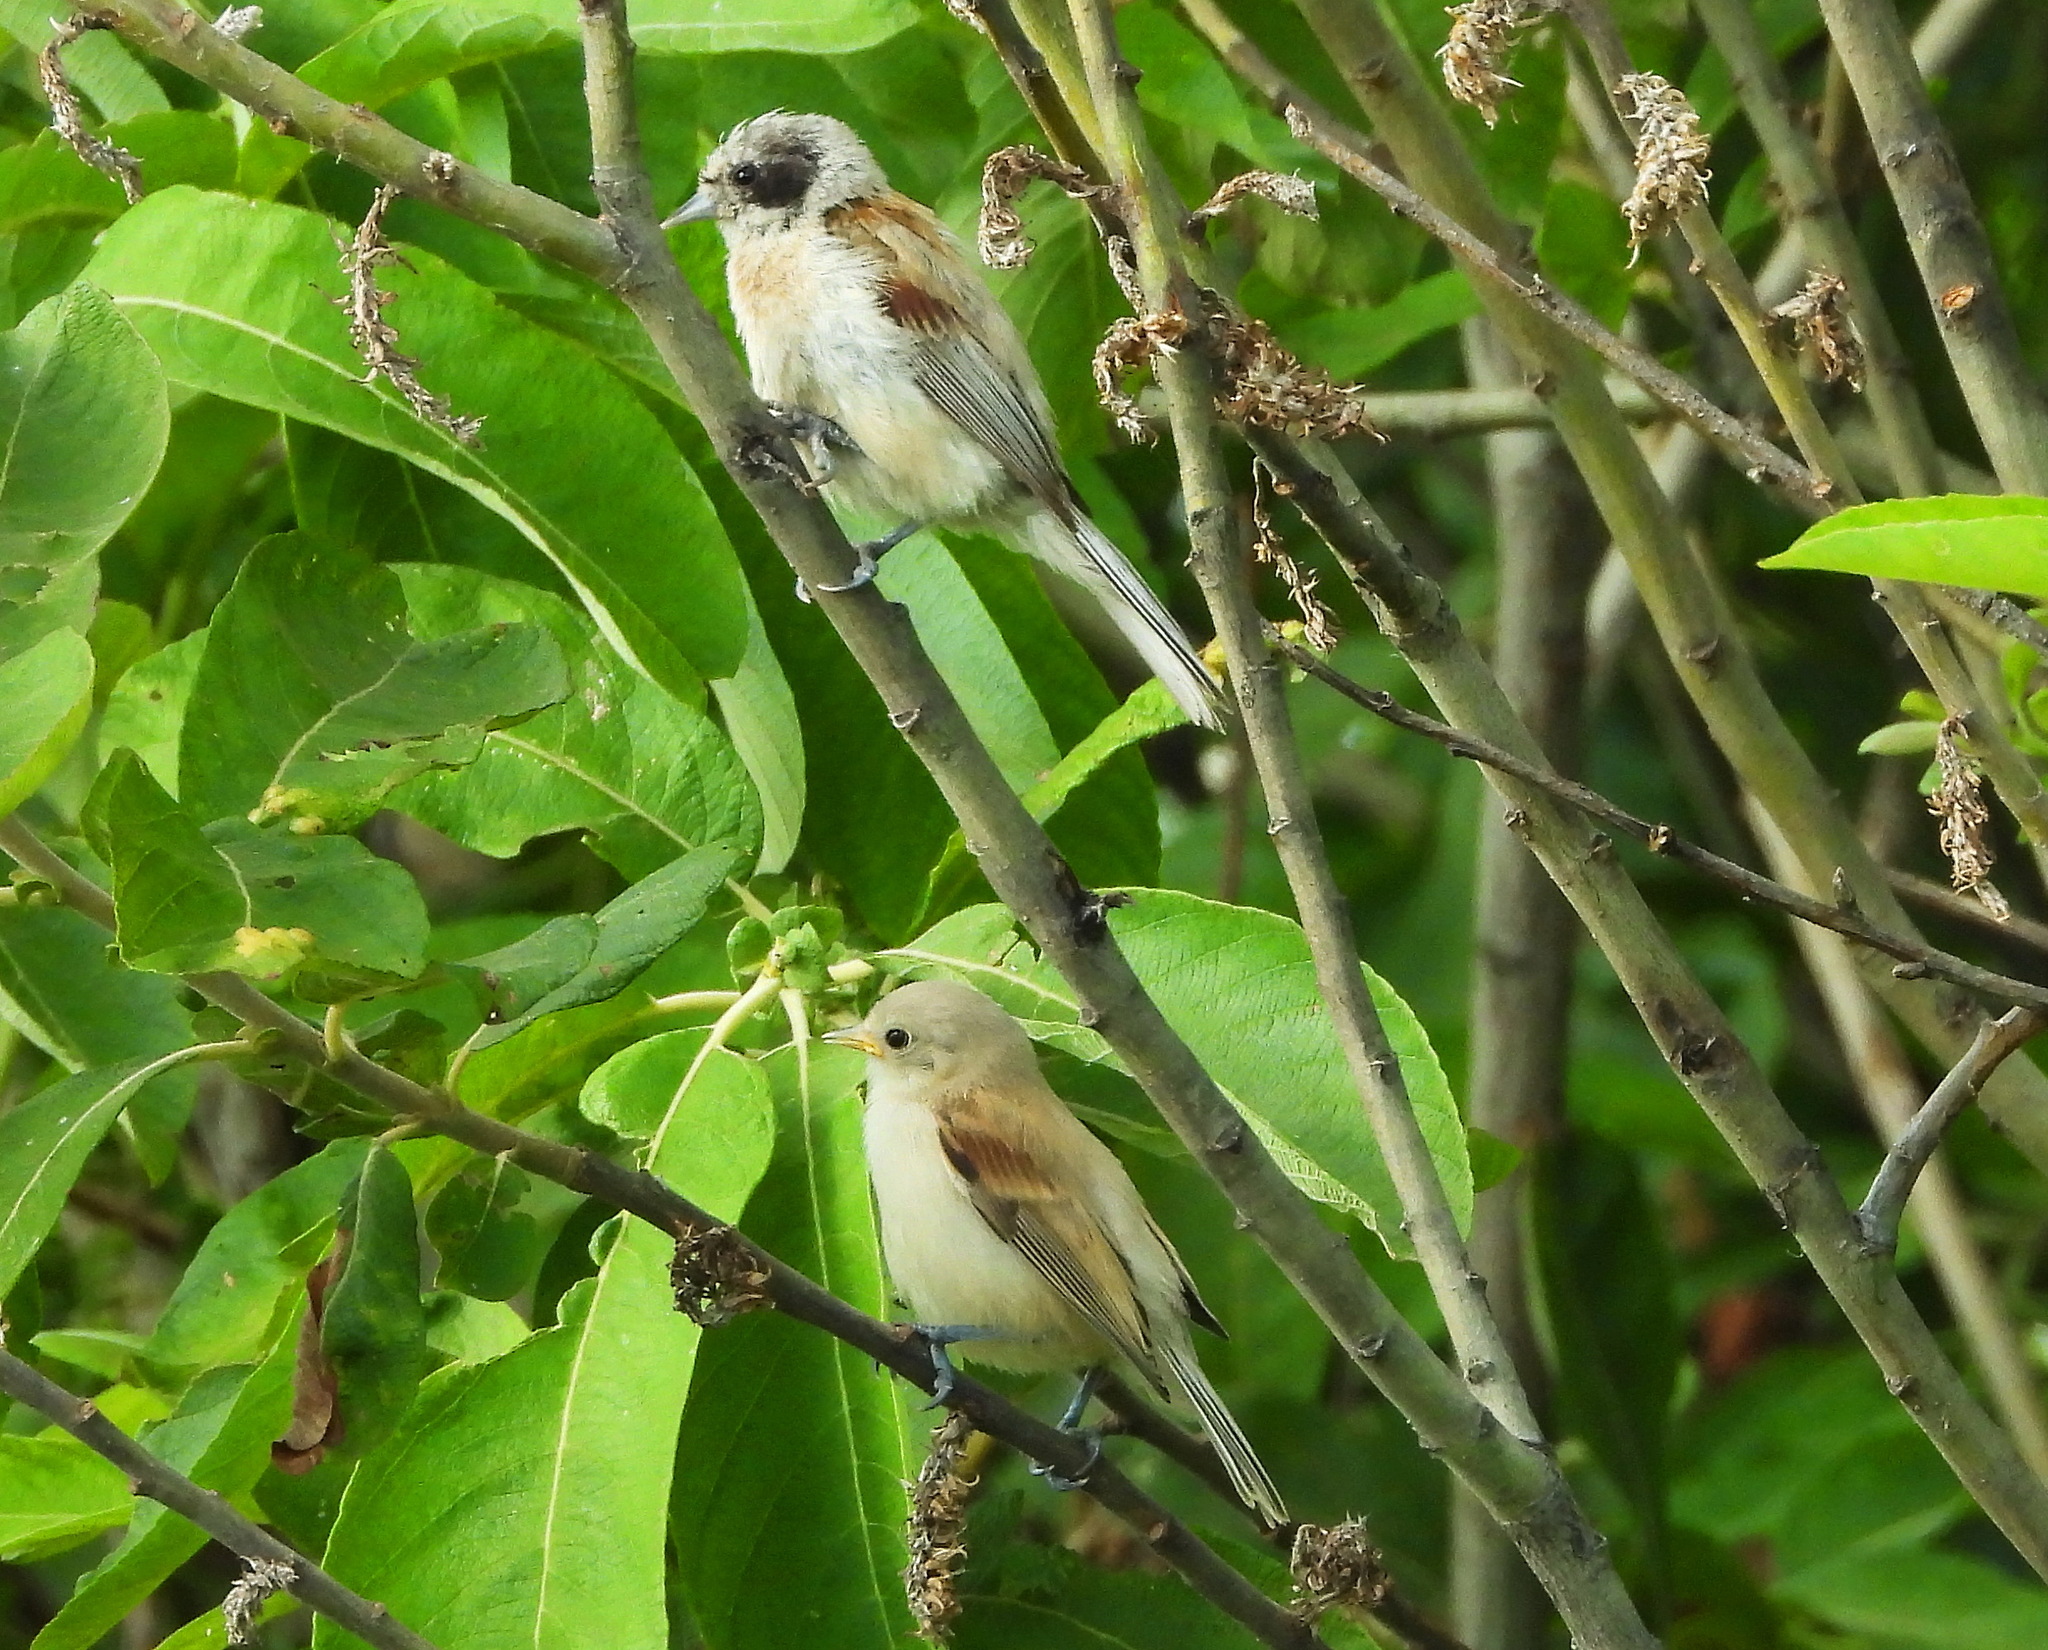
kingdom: Animalia
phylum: Chordata
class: Aves
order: Passeriformes
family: Remizidae
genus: Remiz
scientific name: Remiz pendulinus
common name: Eurasian penduline tit
